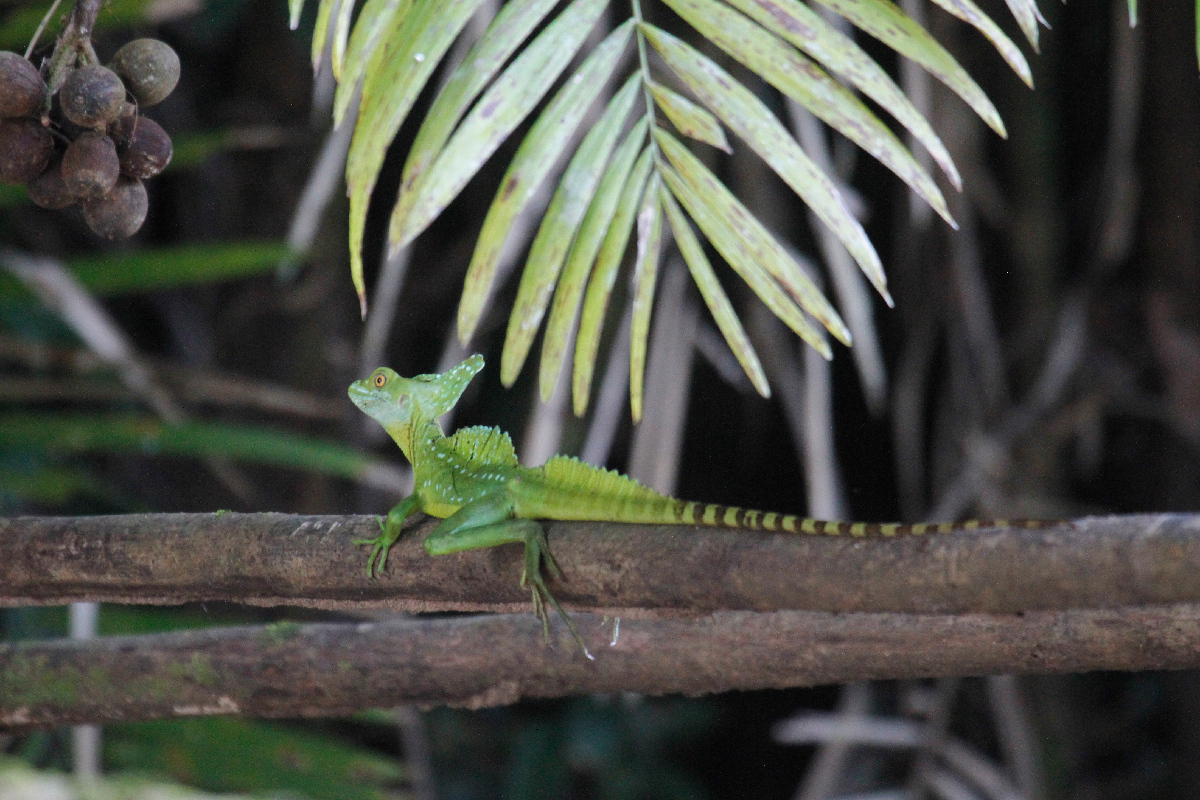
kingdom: Animalia
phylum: Chordata
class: Squamata
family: Corytophanidae
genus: Basiliscus
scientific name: Basiliscus plumifrons
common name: Green basilisk
